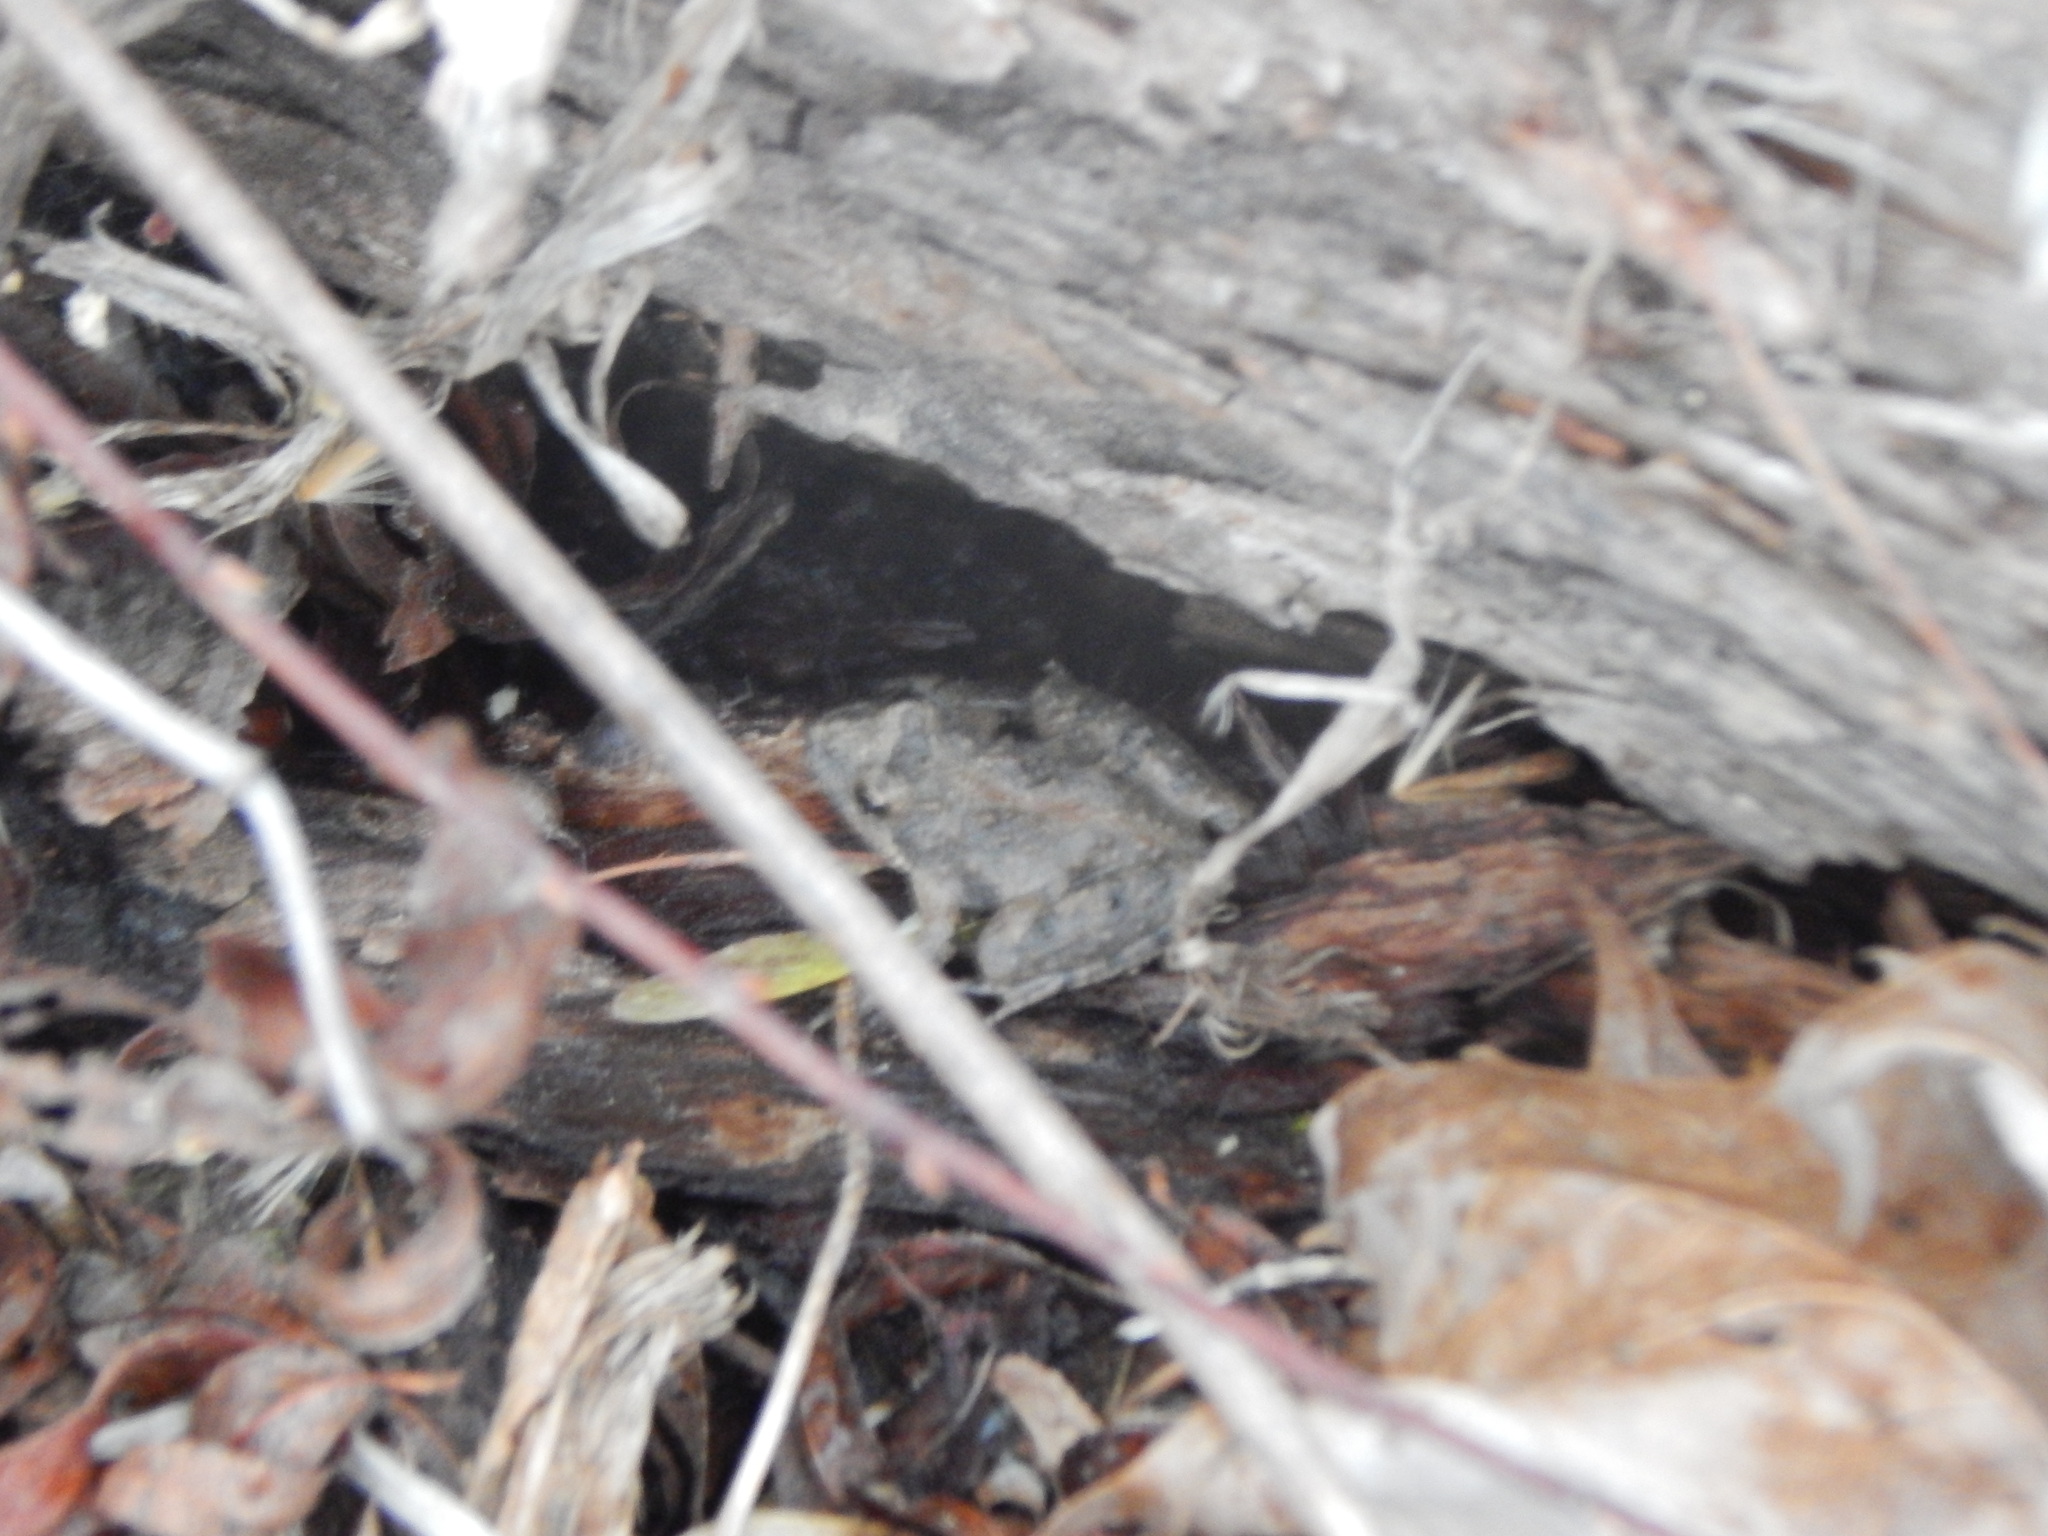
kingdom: Animalia
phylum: Chordata
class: Amphibia
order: Anura
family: Hylidae
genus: Acris
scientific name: Acris crepitans
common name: Northern cricket frog
